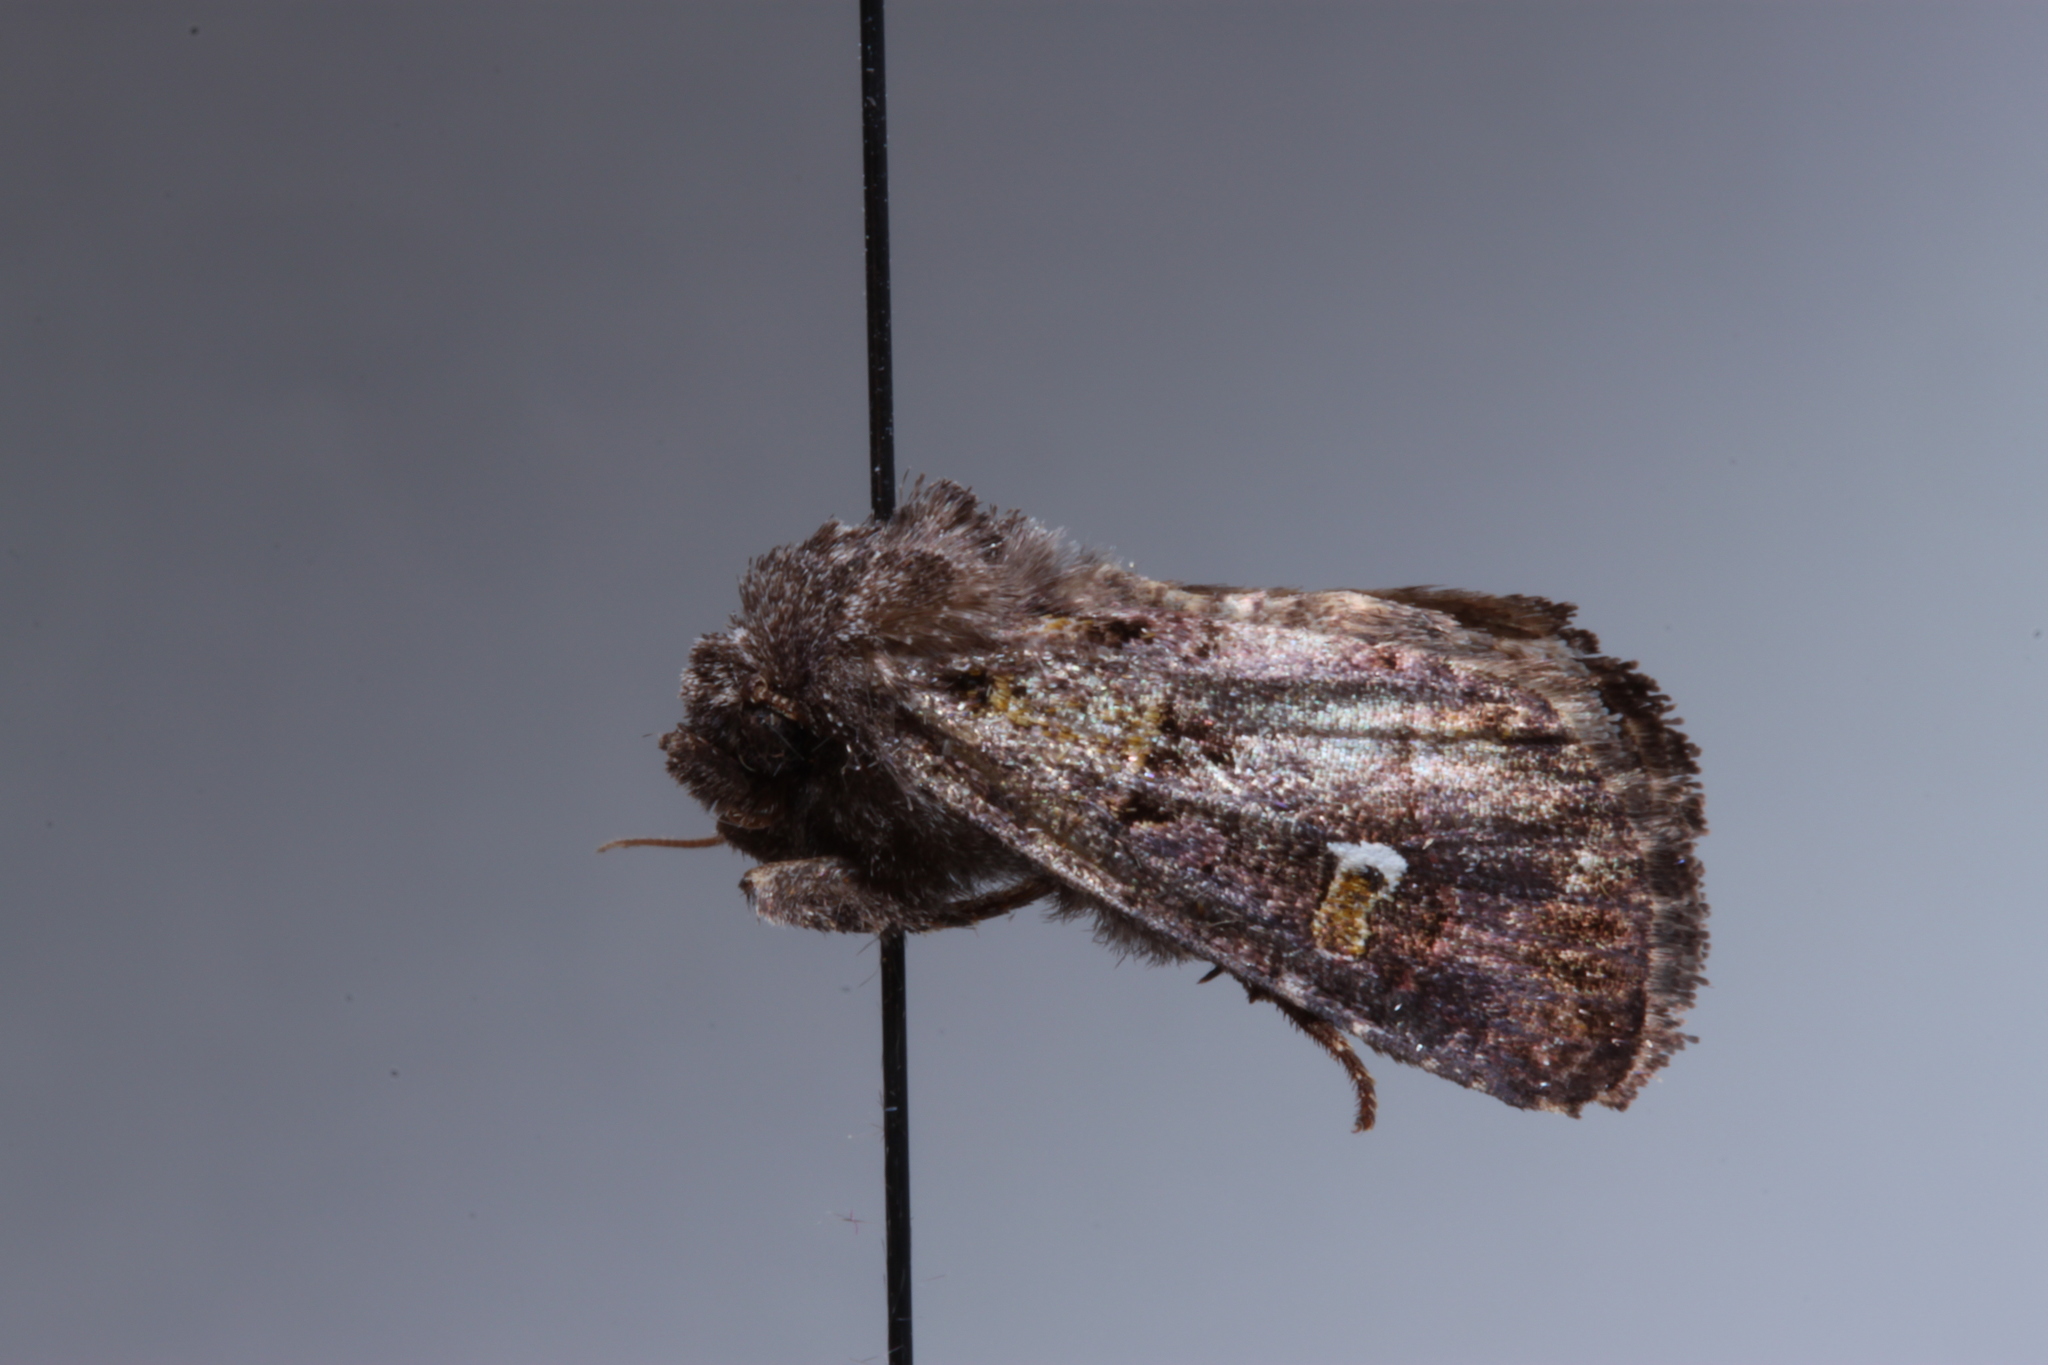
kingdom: Animalia
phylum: Arthropoda
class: Insecta
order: Lepidoptera
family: Noctuidae
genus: Lacinipolia
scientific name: Lacinipolia renigera
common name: Kidney-spotted minor
